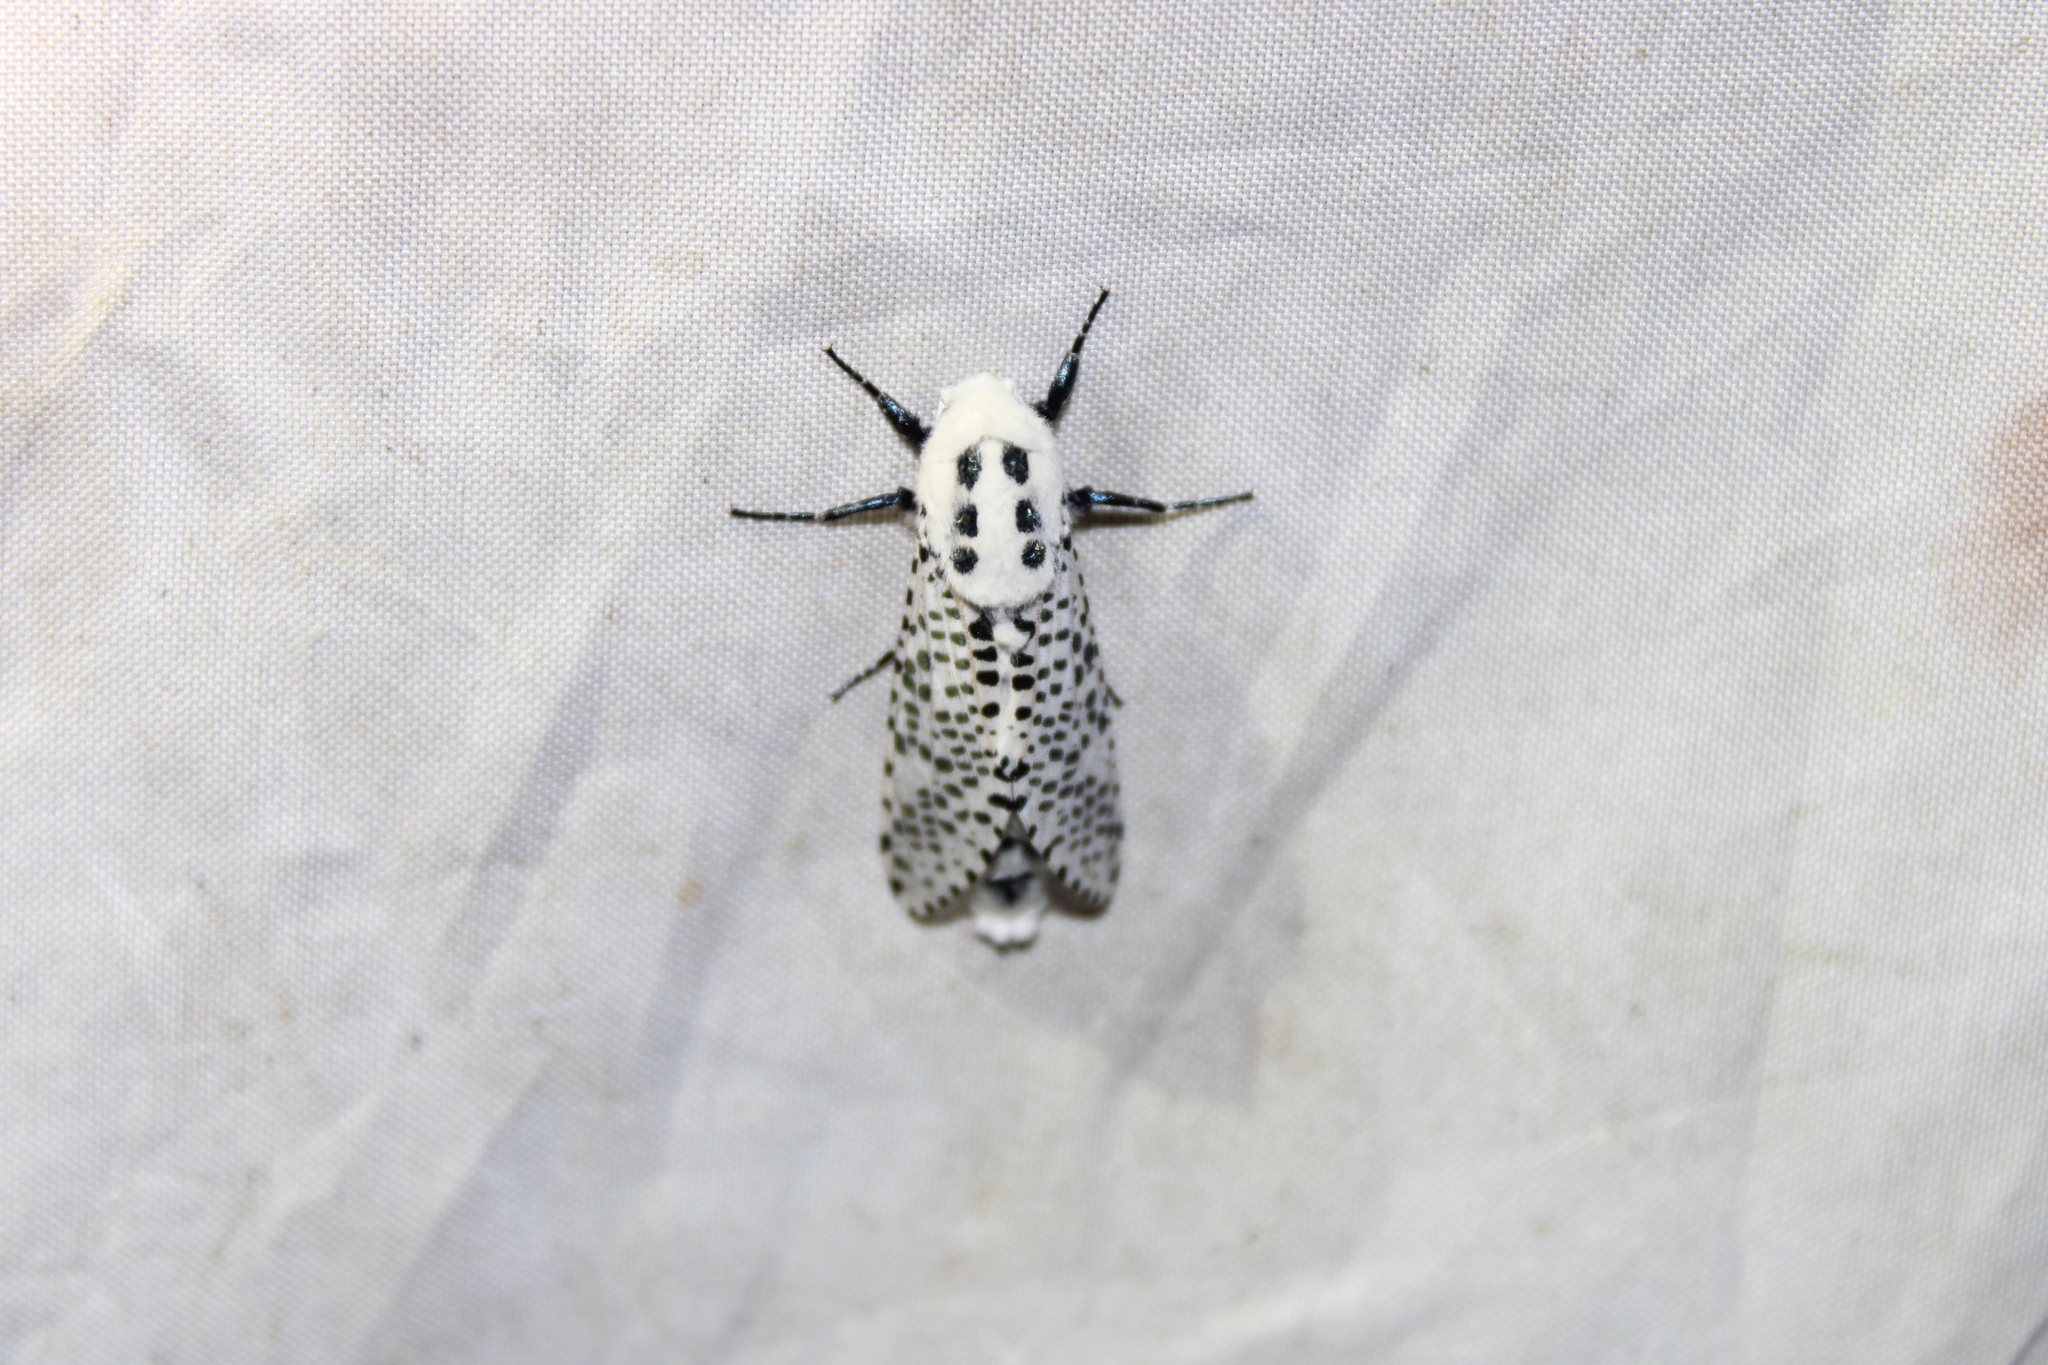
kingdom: Animalia
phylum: Arthropoda
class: Insecta
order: Lepidoptera
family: Cossidae
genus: Zeuzera
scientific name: Zeuzera pyrina
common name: Leopard moth
